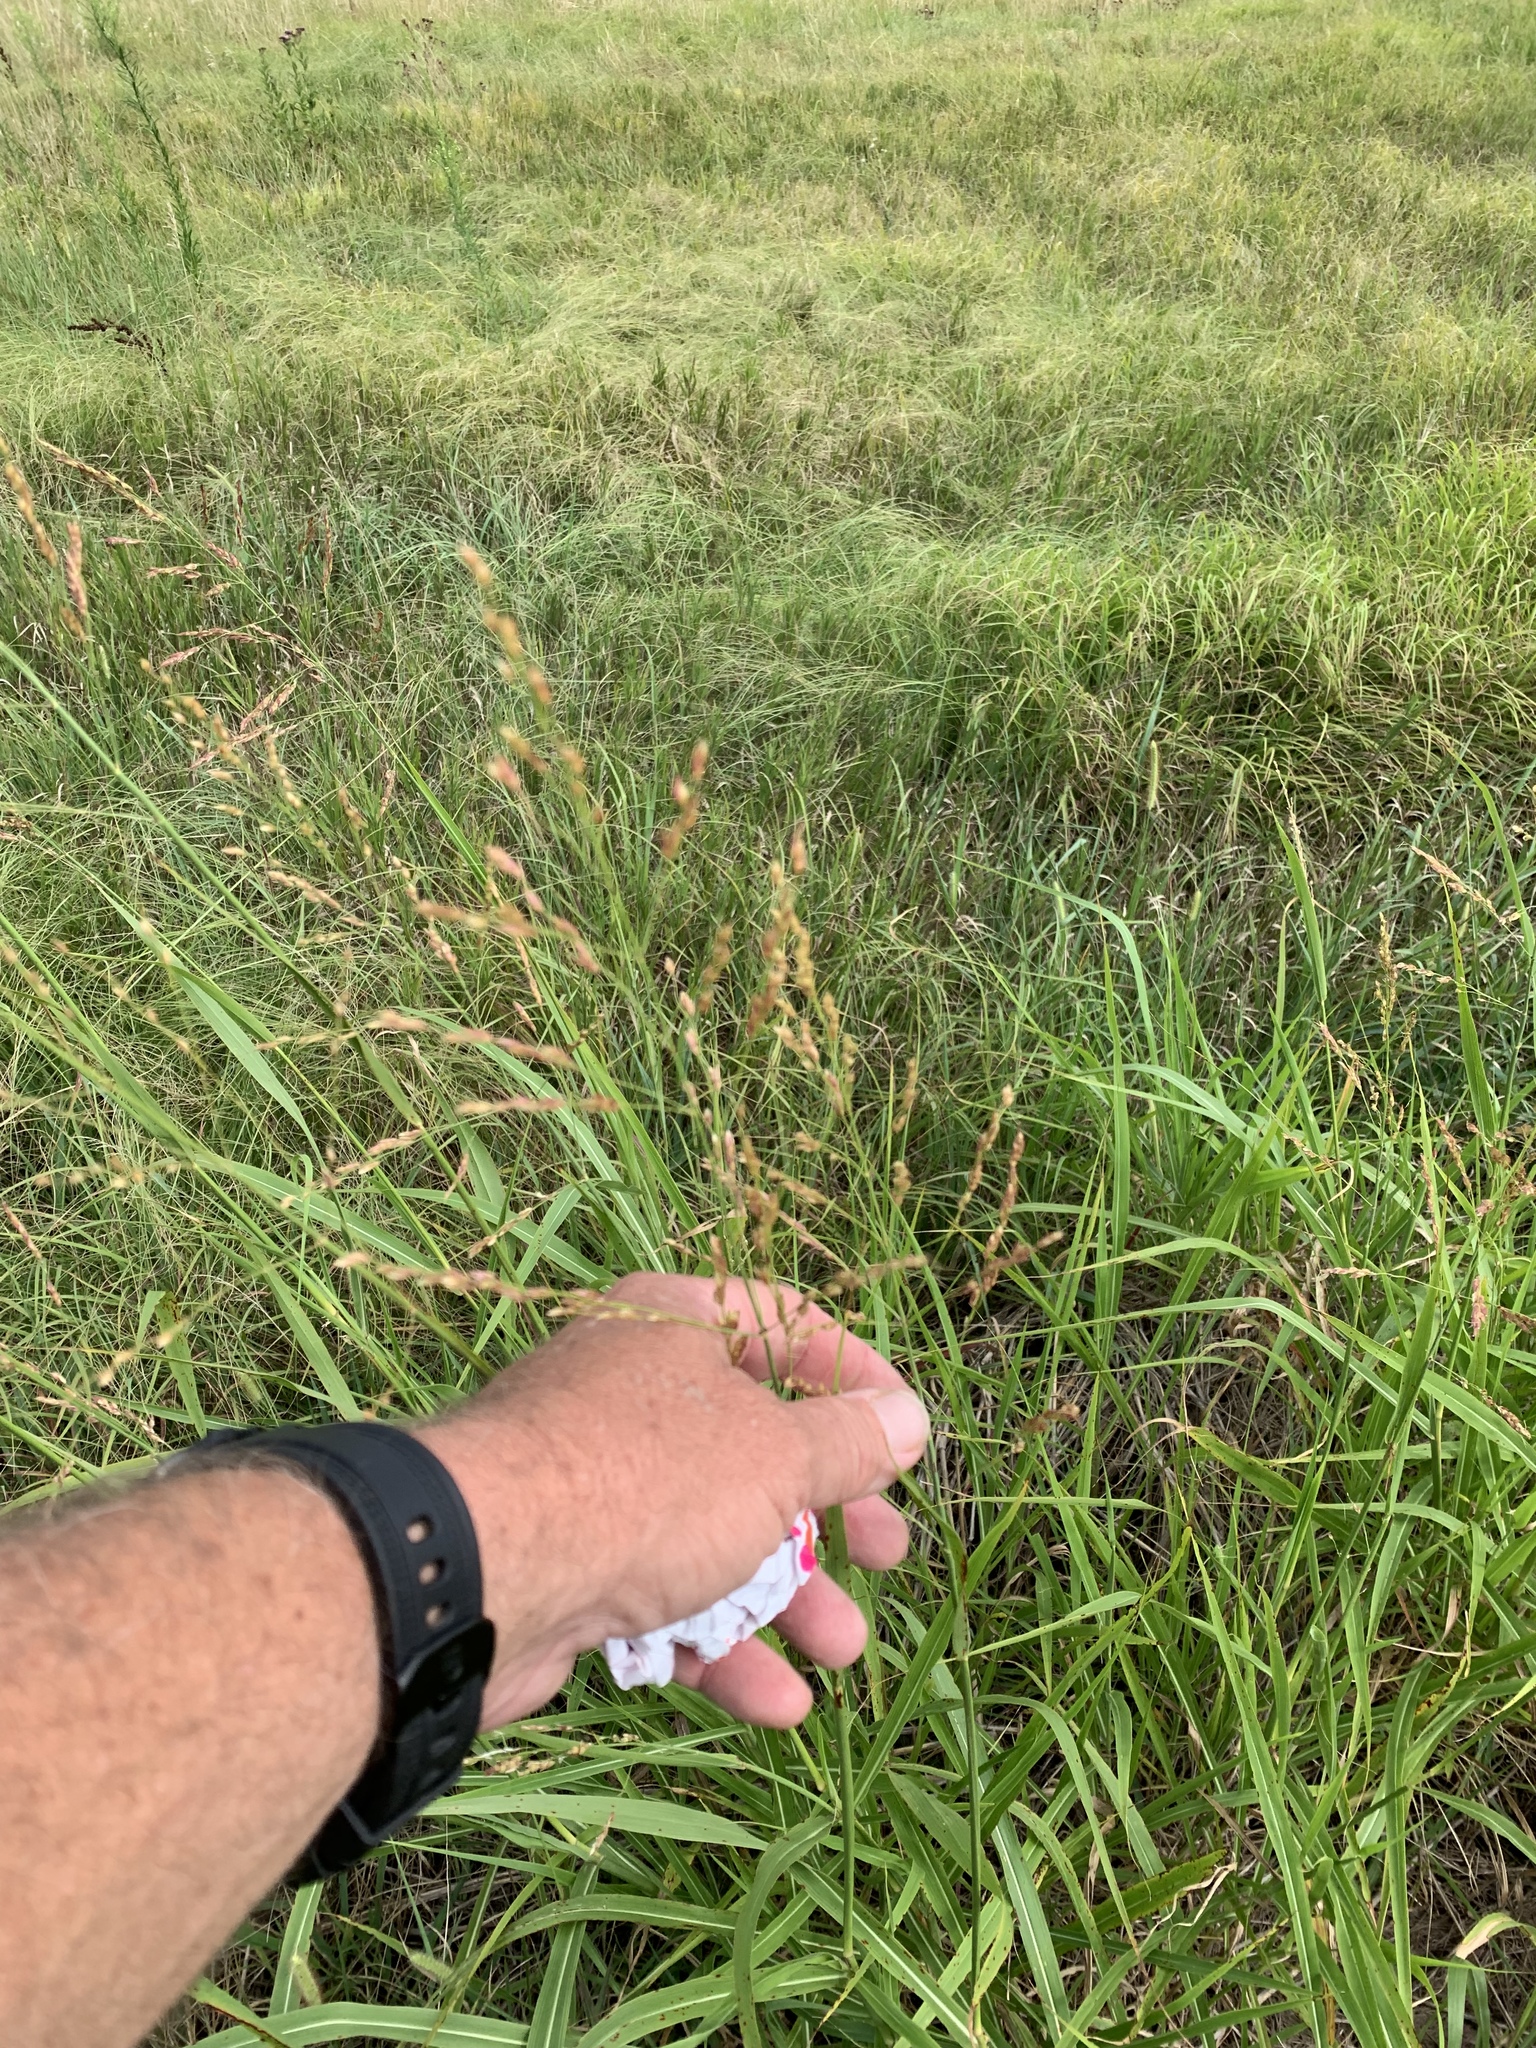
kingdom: Plantae
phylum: Tracheophyta
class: Liliopsida
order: Poales
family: Poaceae
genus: Sorghum
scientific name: Sorghum halepense
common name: Johnson-grass
